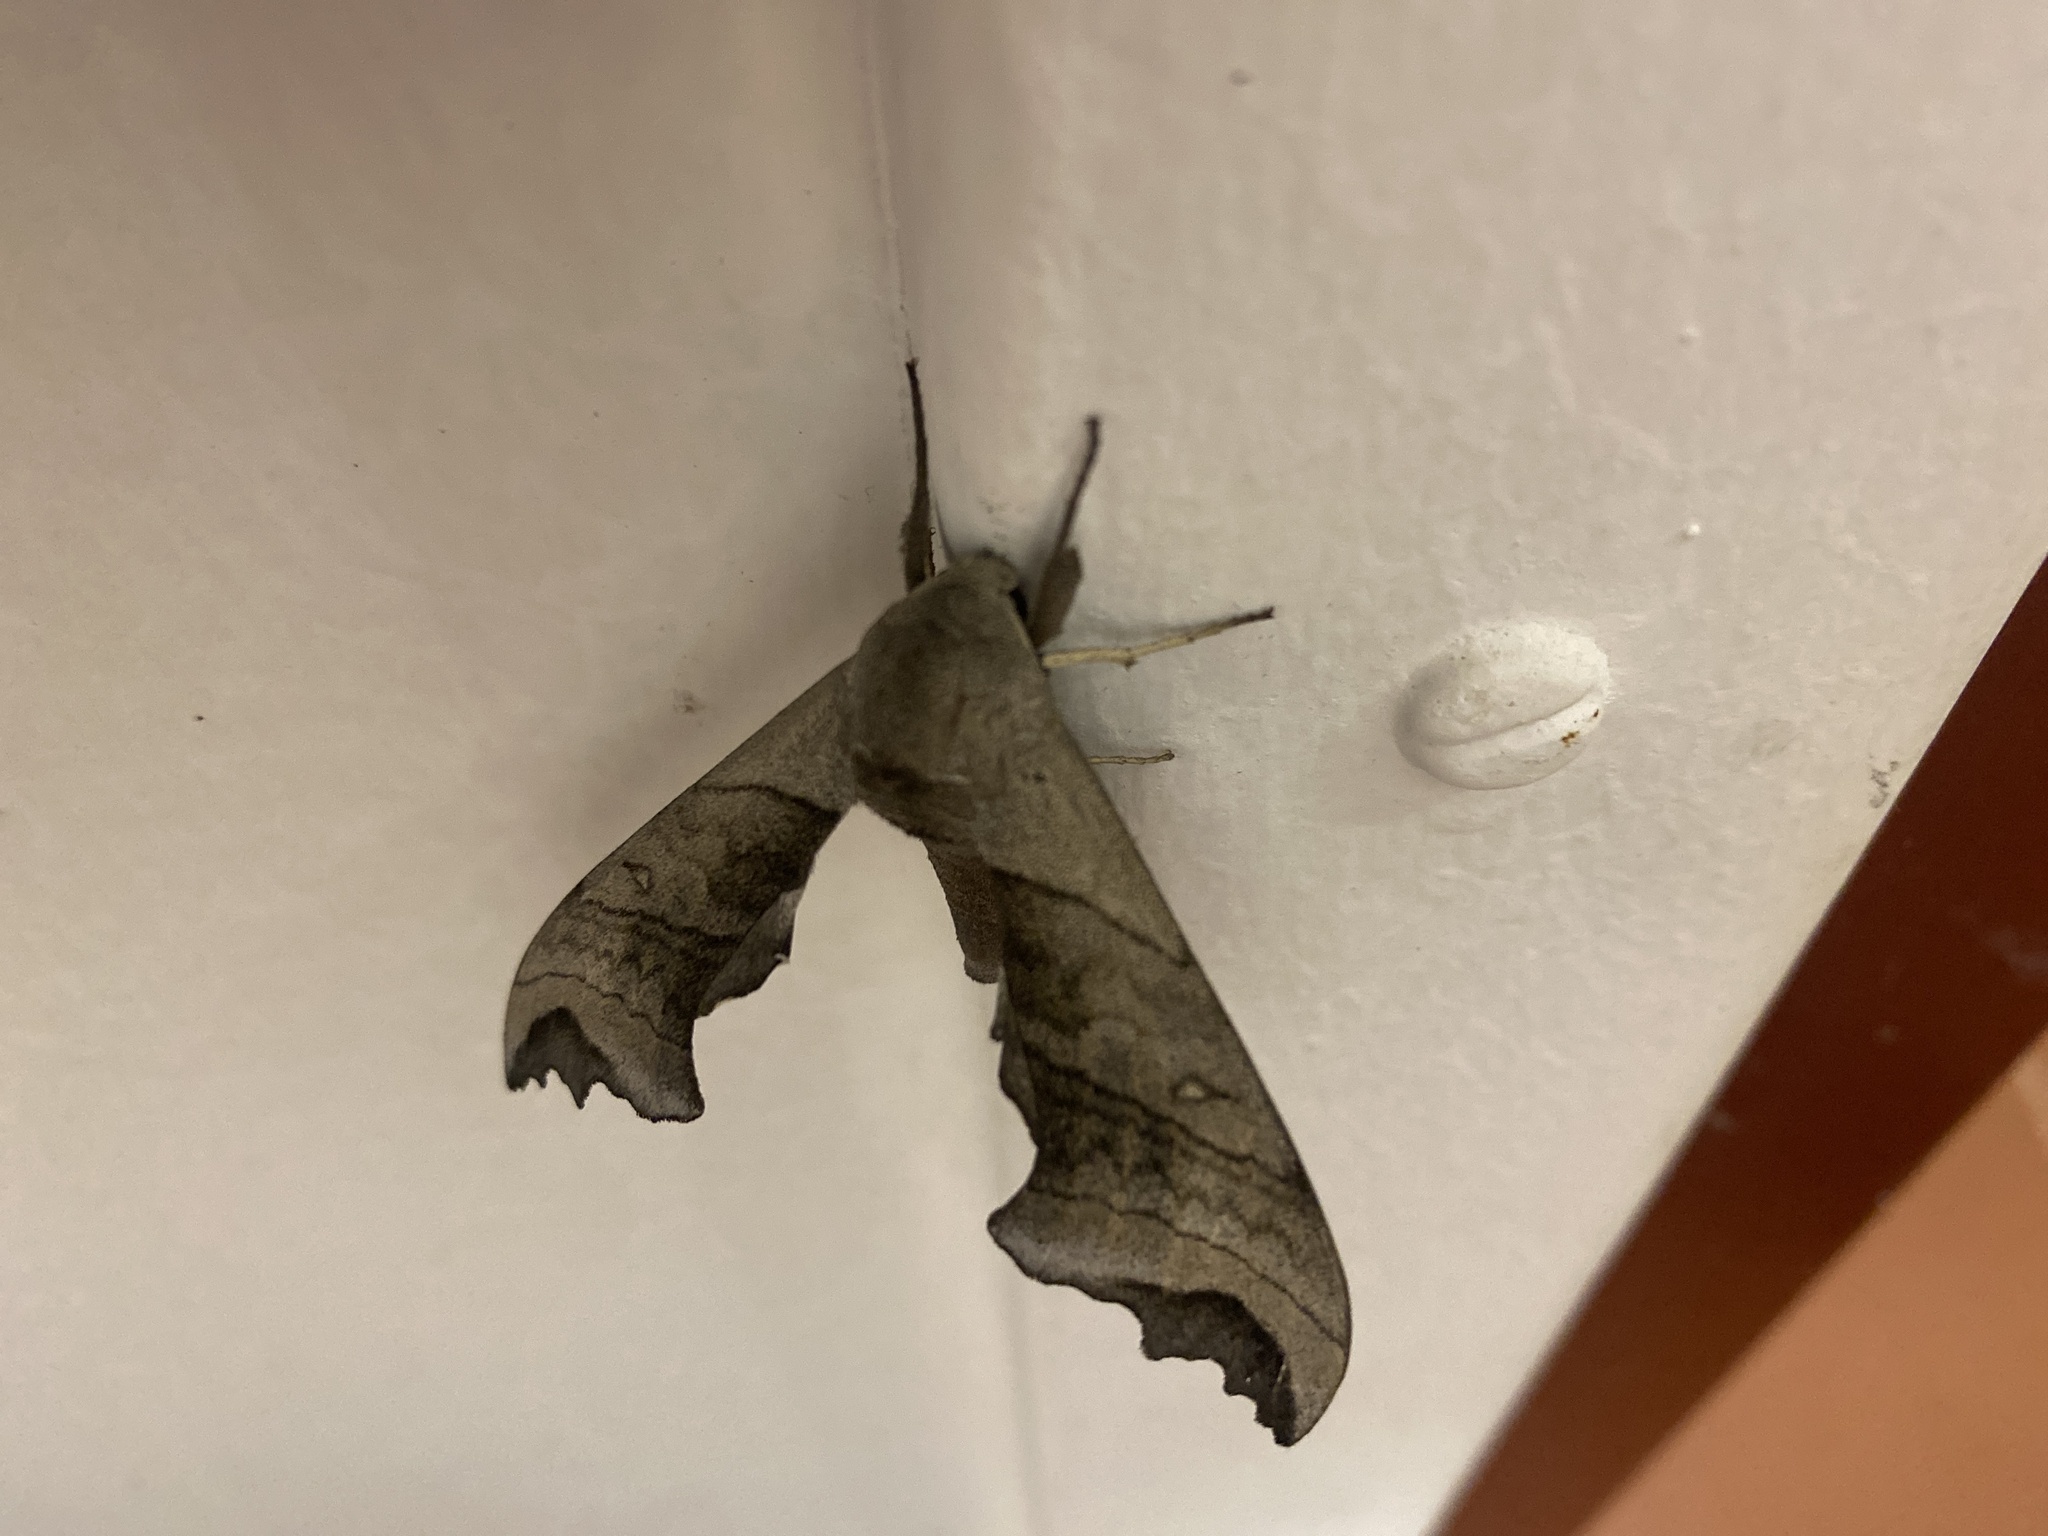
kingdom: Animalia
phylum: Arthropoda
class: Insecta
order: Lepidoptera
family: Sphingidae
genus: Polyptychoides
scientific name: Polyptychoides grayii
